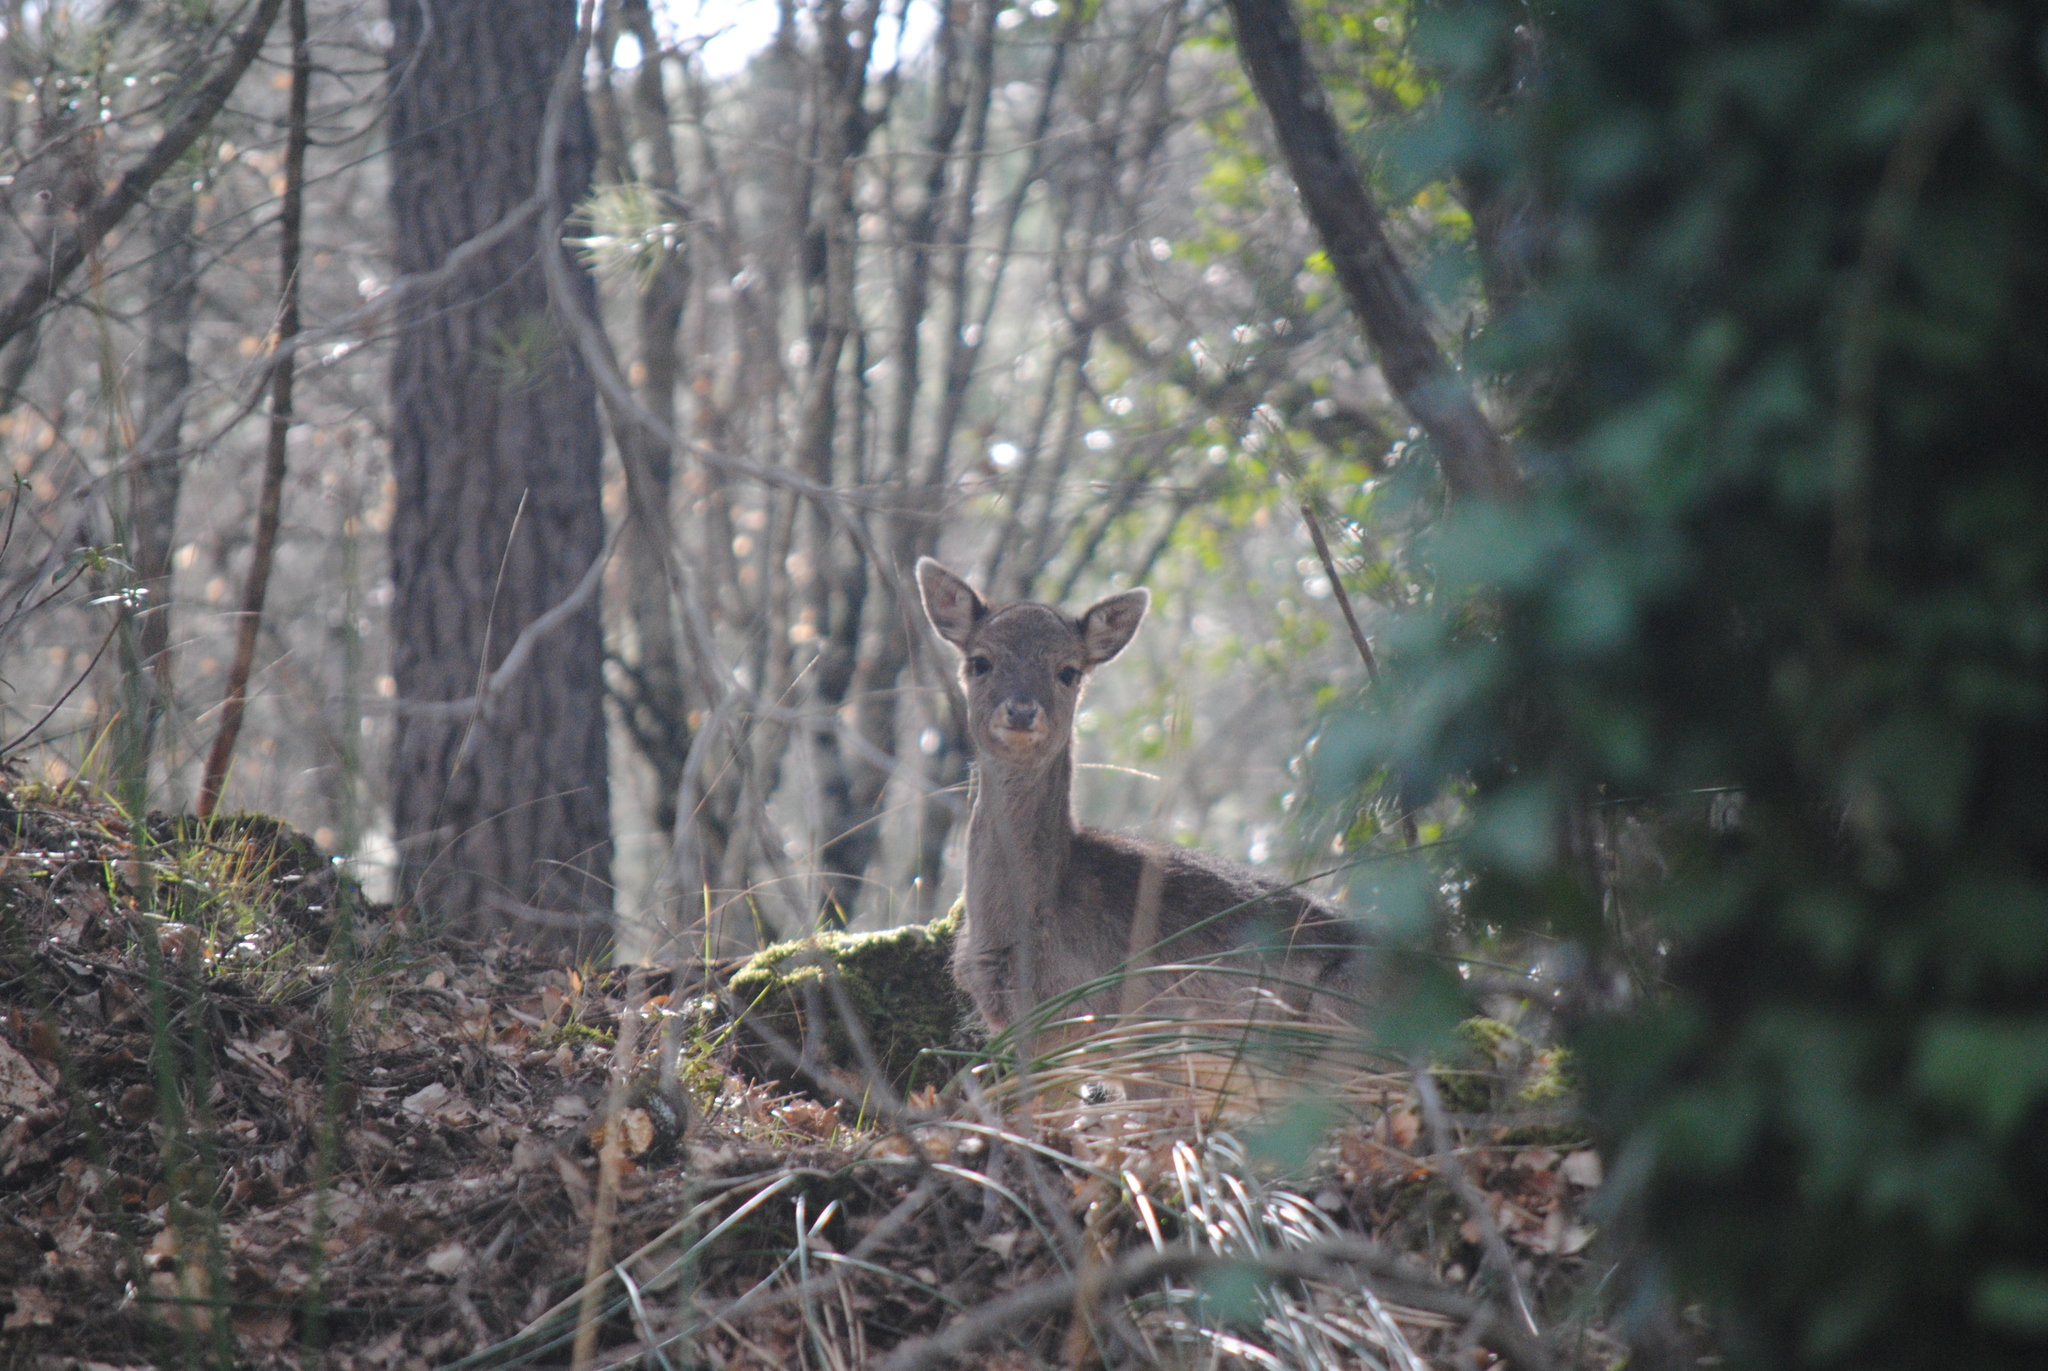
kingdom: Animalia
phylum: Chordata
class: Mammalia
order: Artiodactyla
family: Cervidae
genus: Dama
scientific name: Dama dama
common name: Fallow deer
